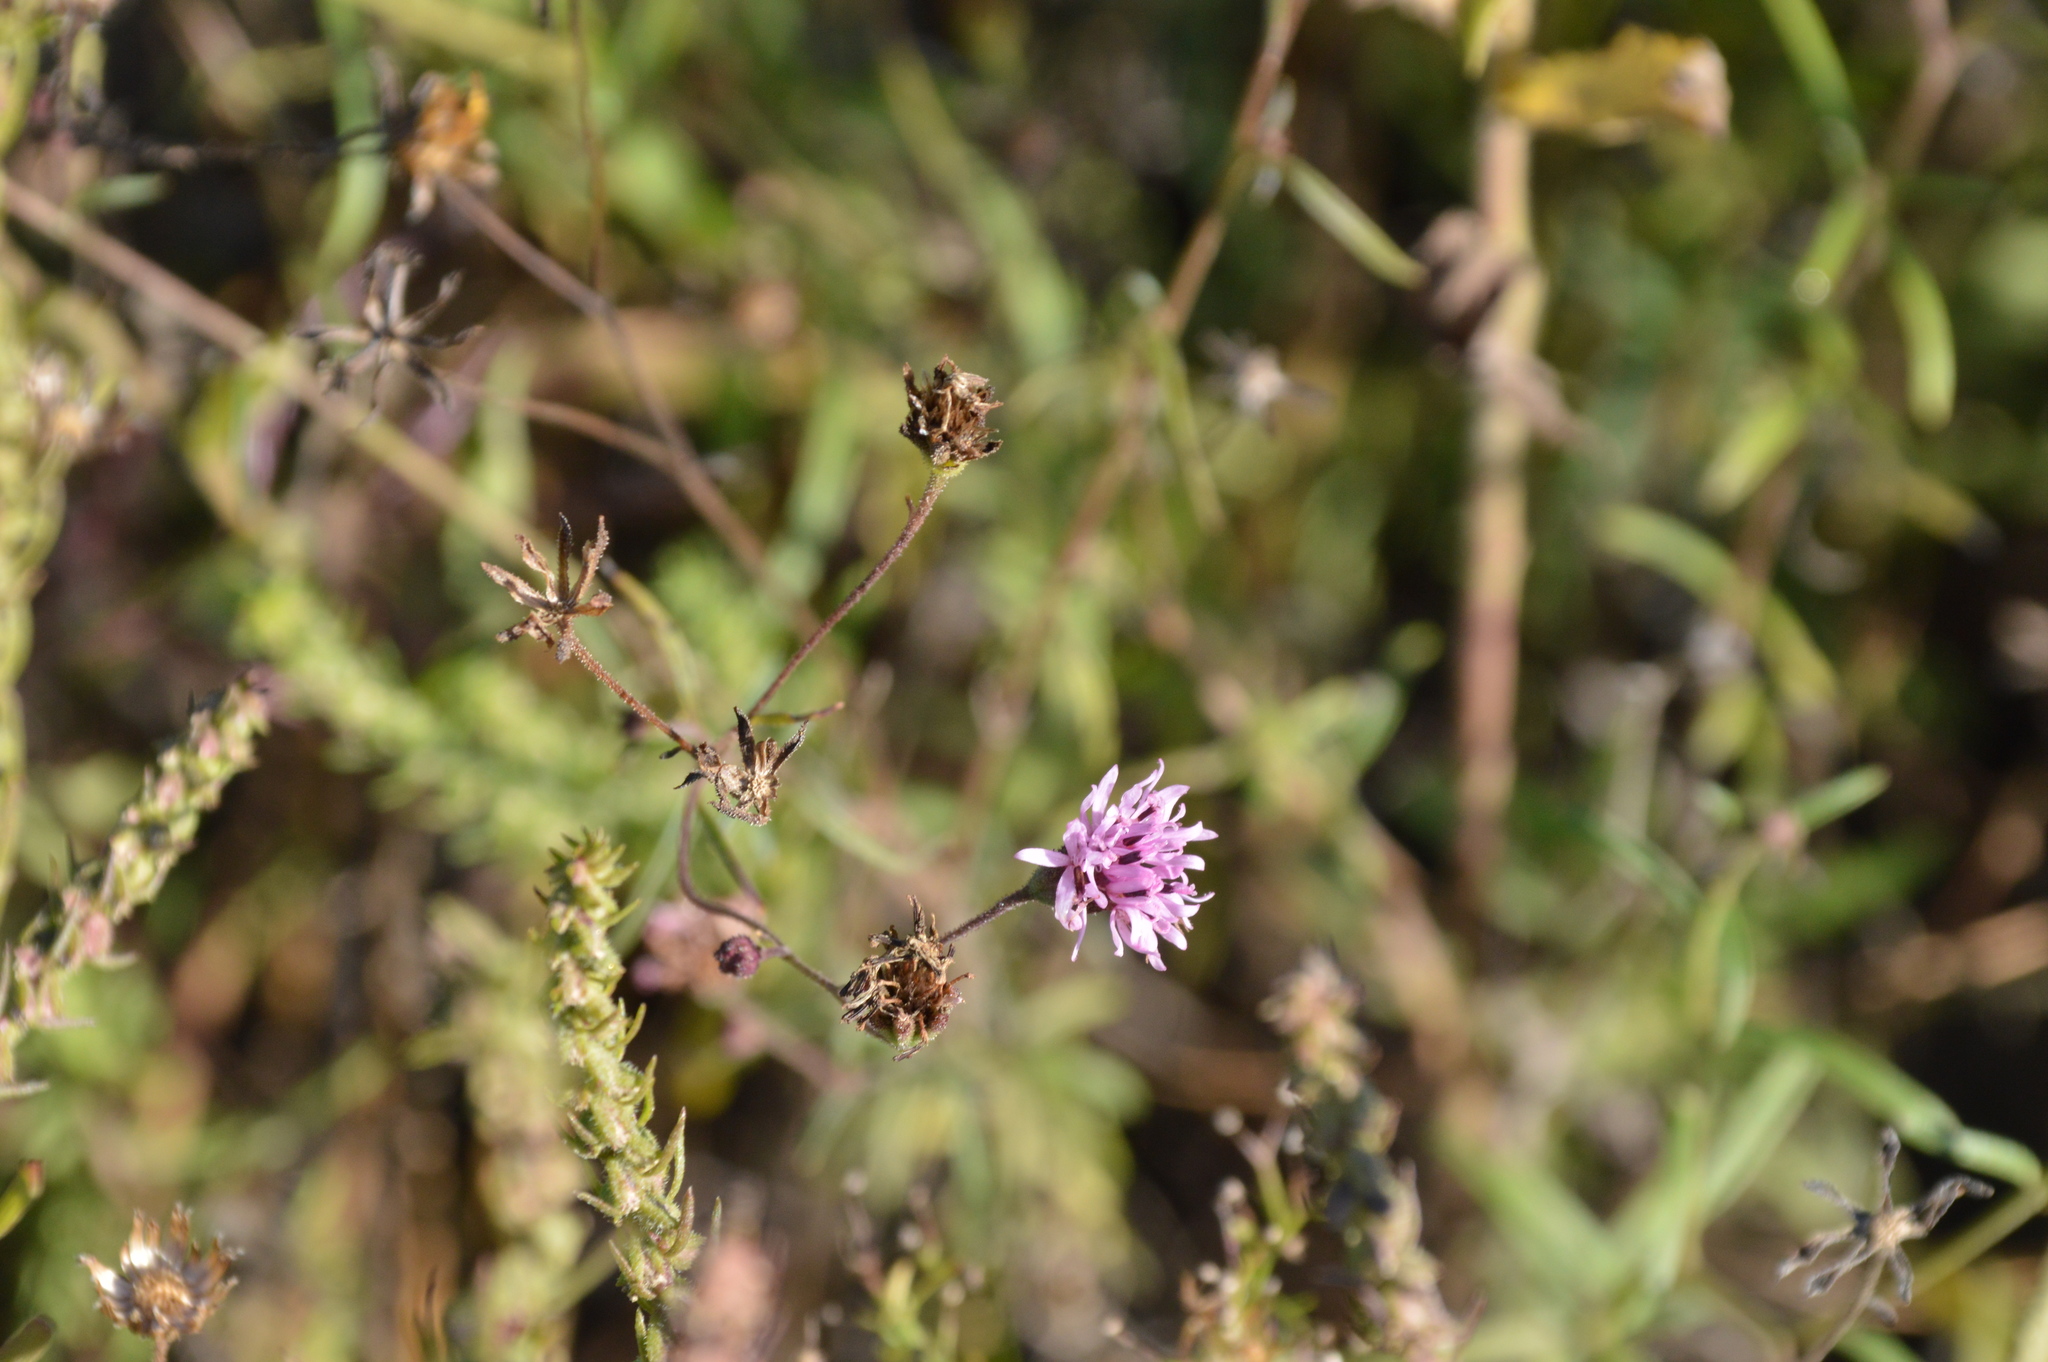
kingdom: Plantae
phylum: Tracheophyta
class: Magnoliopsida
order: Asterales
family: Asteraceae
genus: Palafoxia
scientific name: Palafoxia rosea
